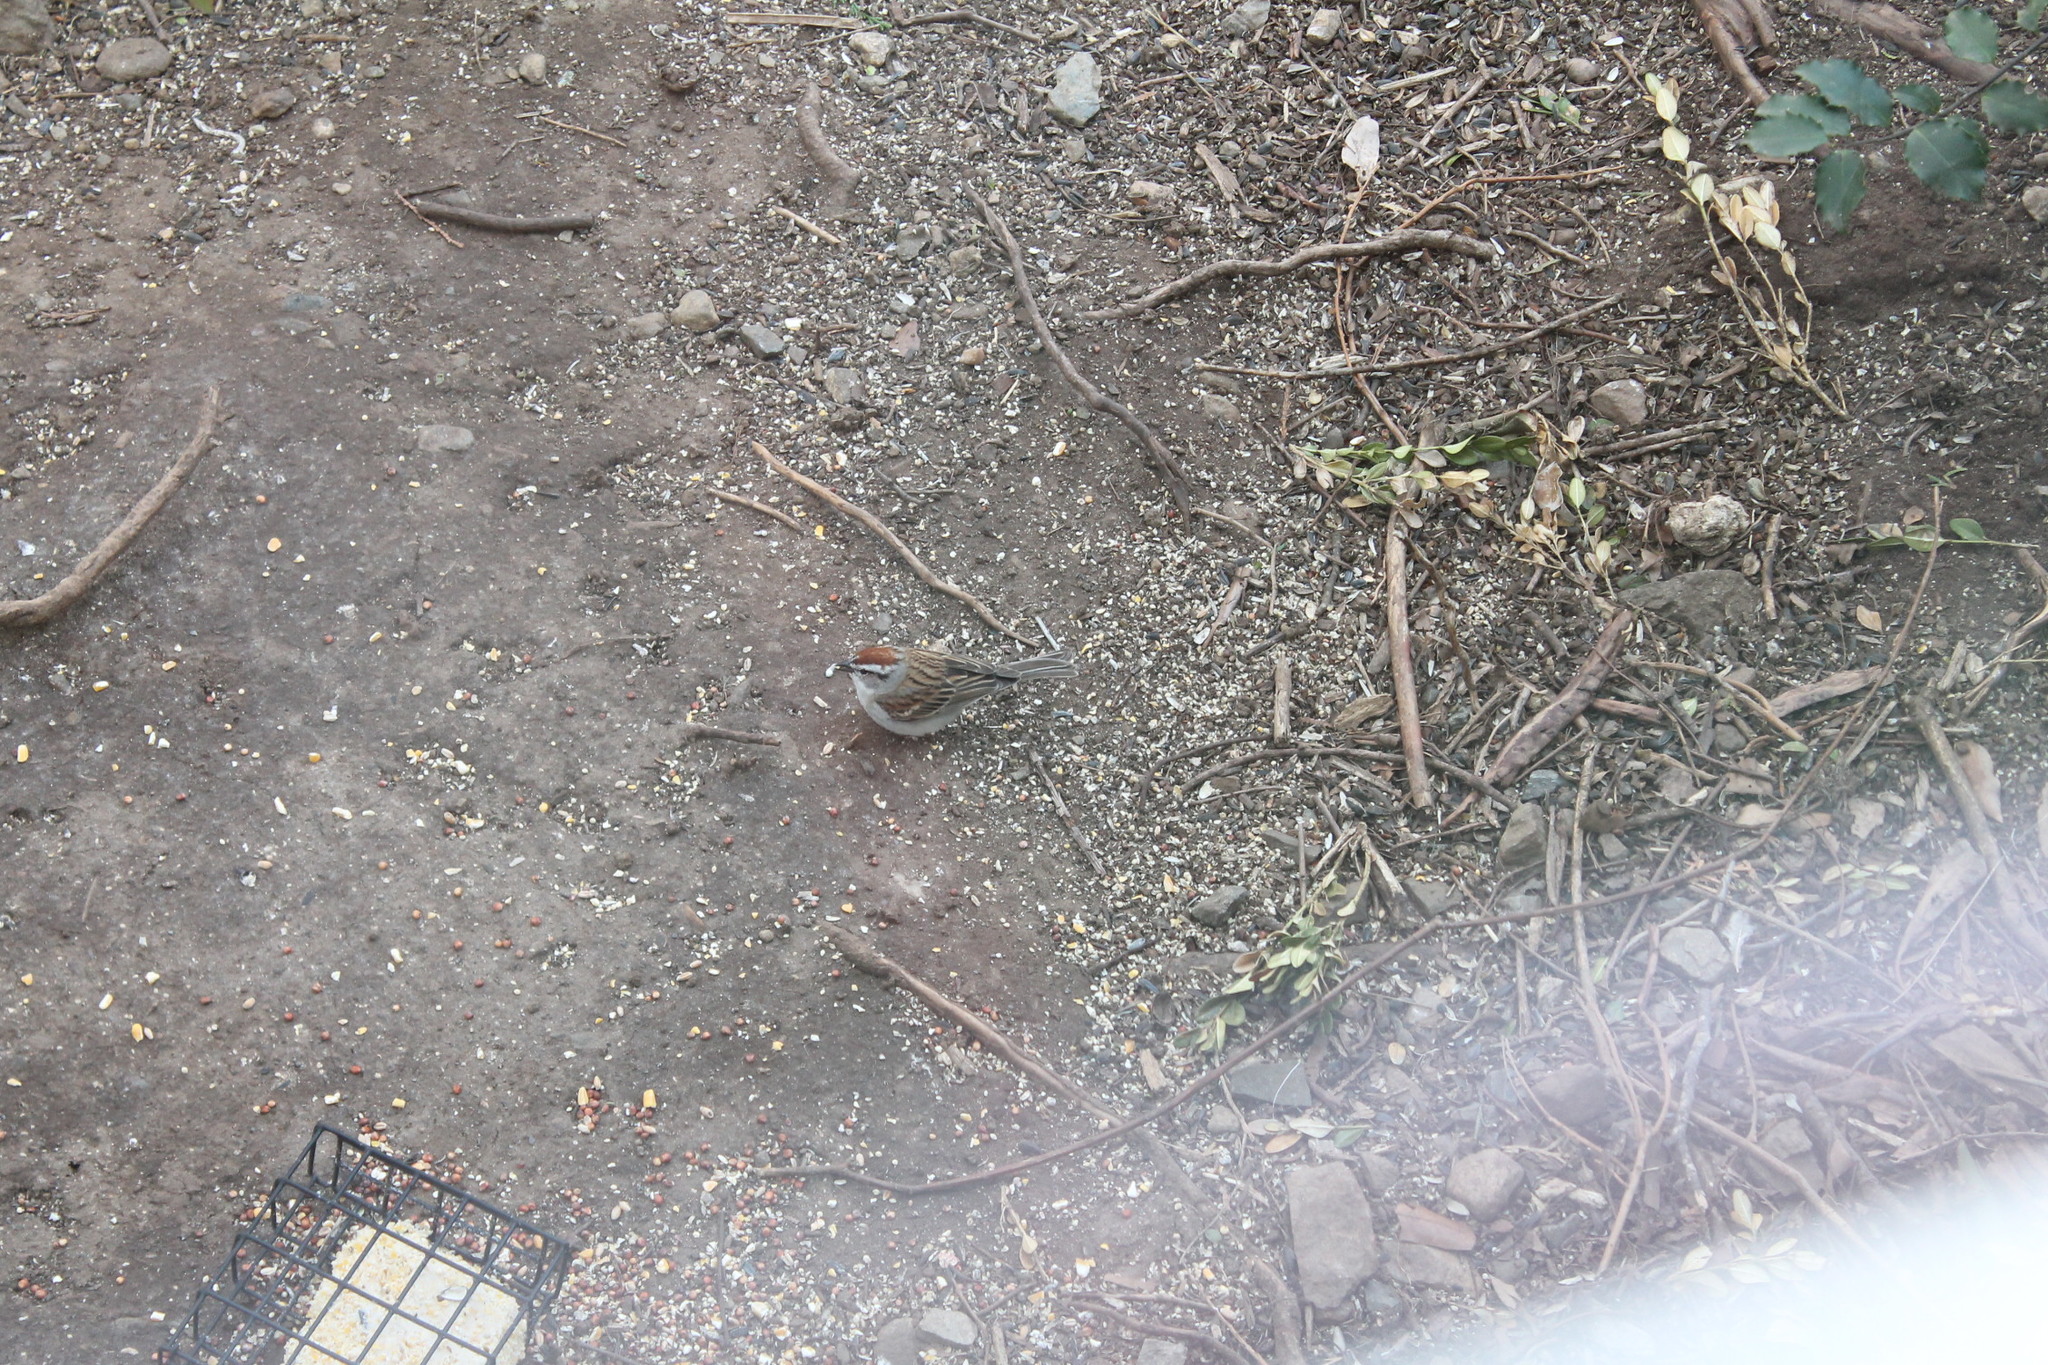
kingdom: Animalia
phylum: Chordata
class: Aves
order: Passeriformes
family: Passerellidae
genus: Spizella
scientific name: Spizella passerina
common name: Chipping sparrow
